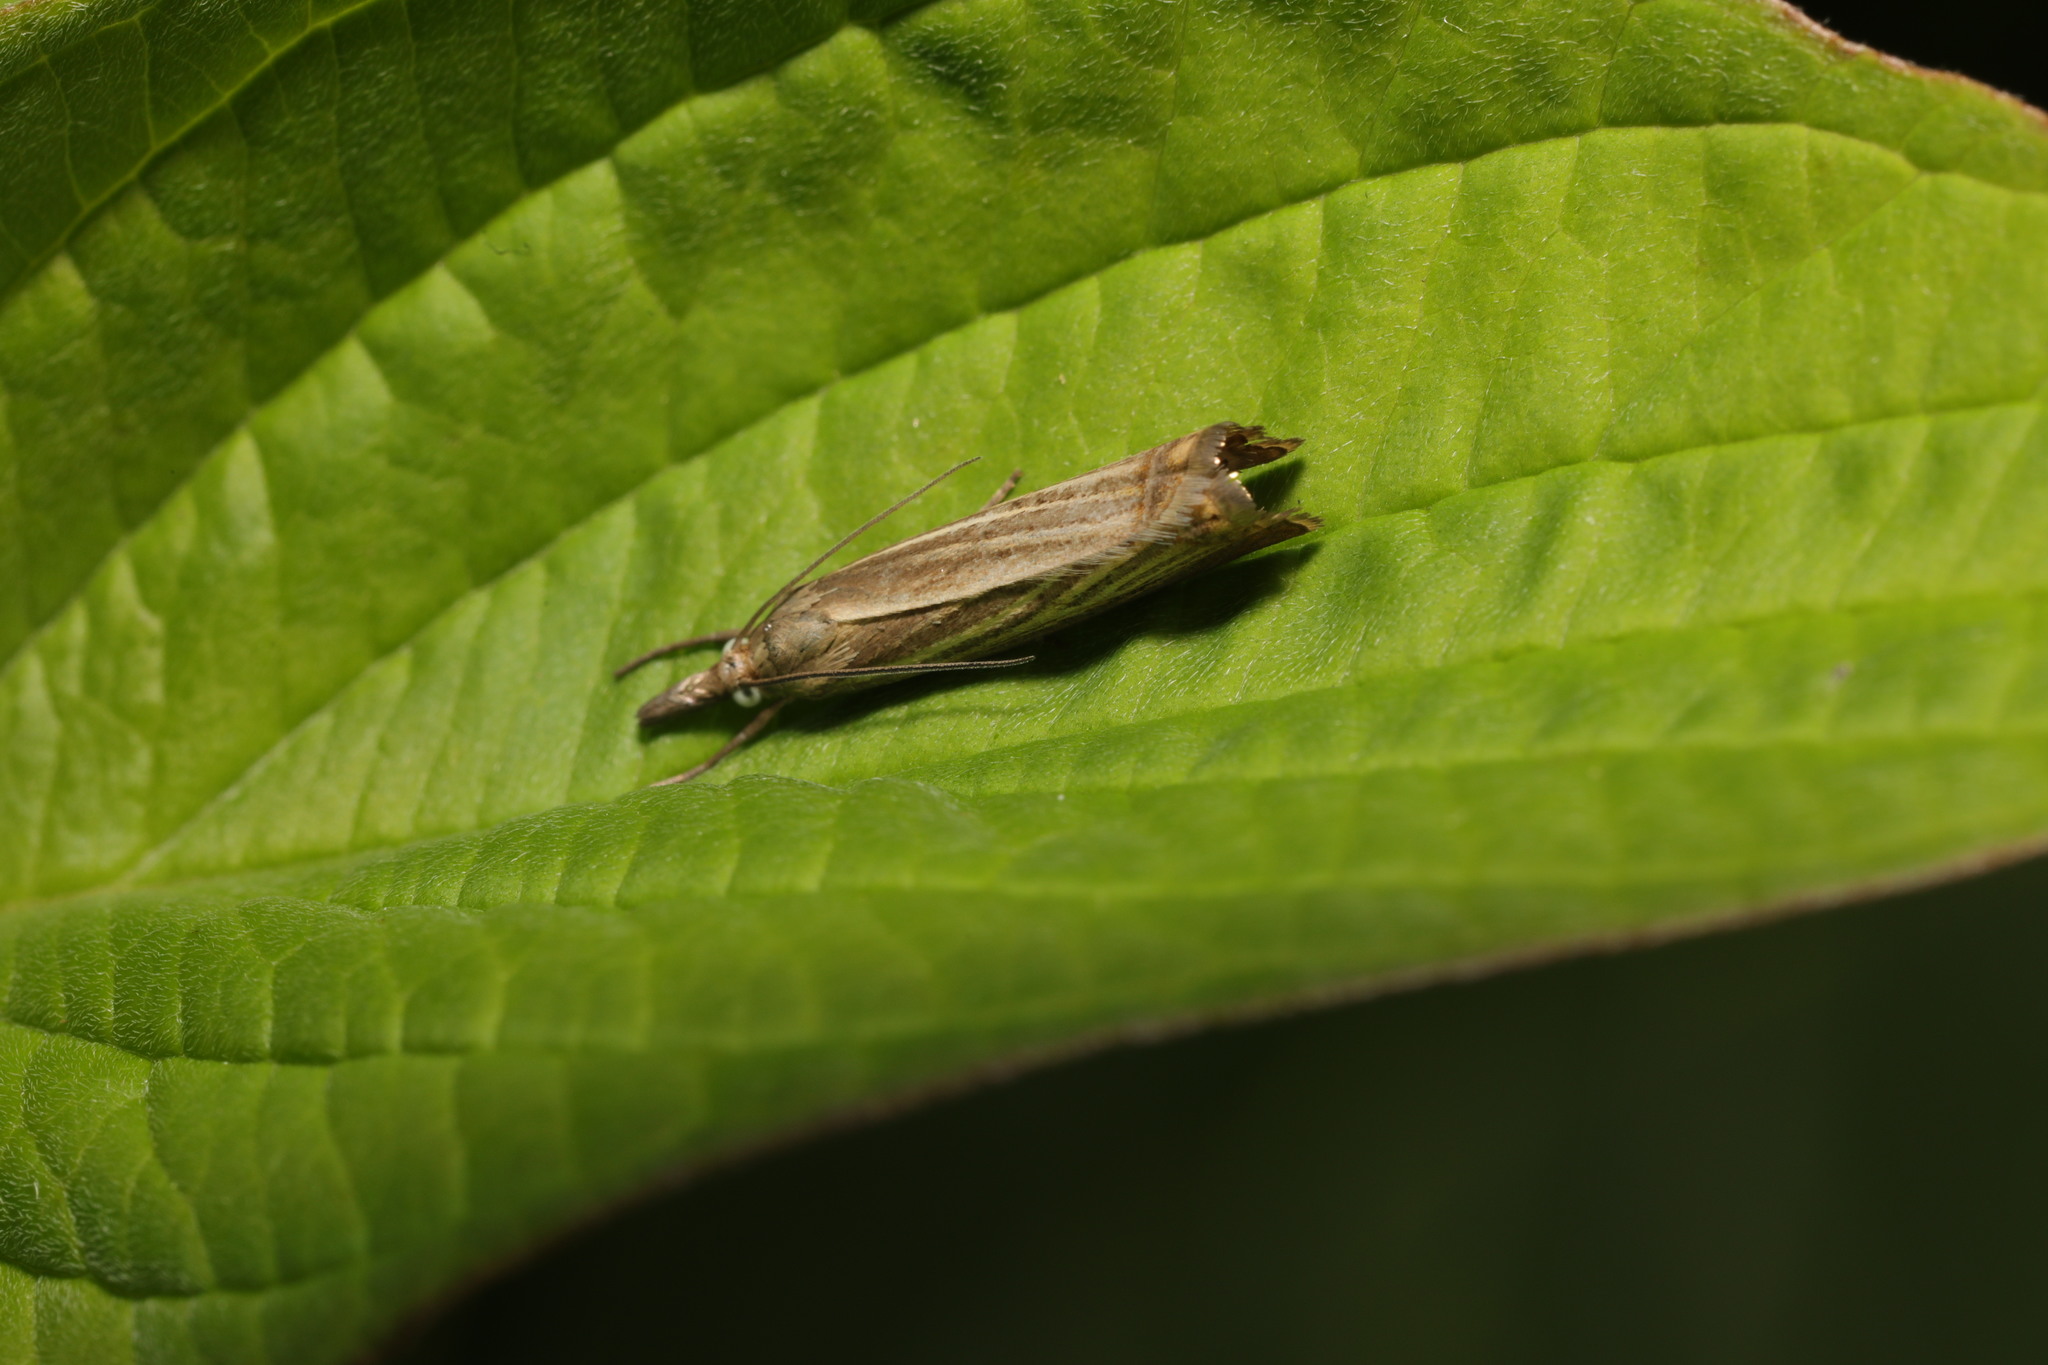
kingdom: Animalia
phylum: Arthropoda
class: Insecta
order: Lepidoptera
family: Crambidae
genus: Chrysoteuchia
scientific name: Chrysoteuchia culmella
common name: Garden grass-veneer
